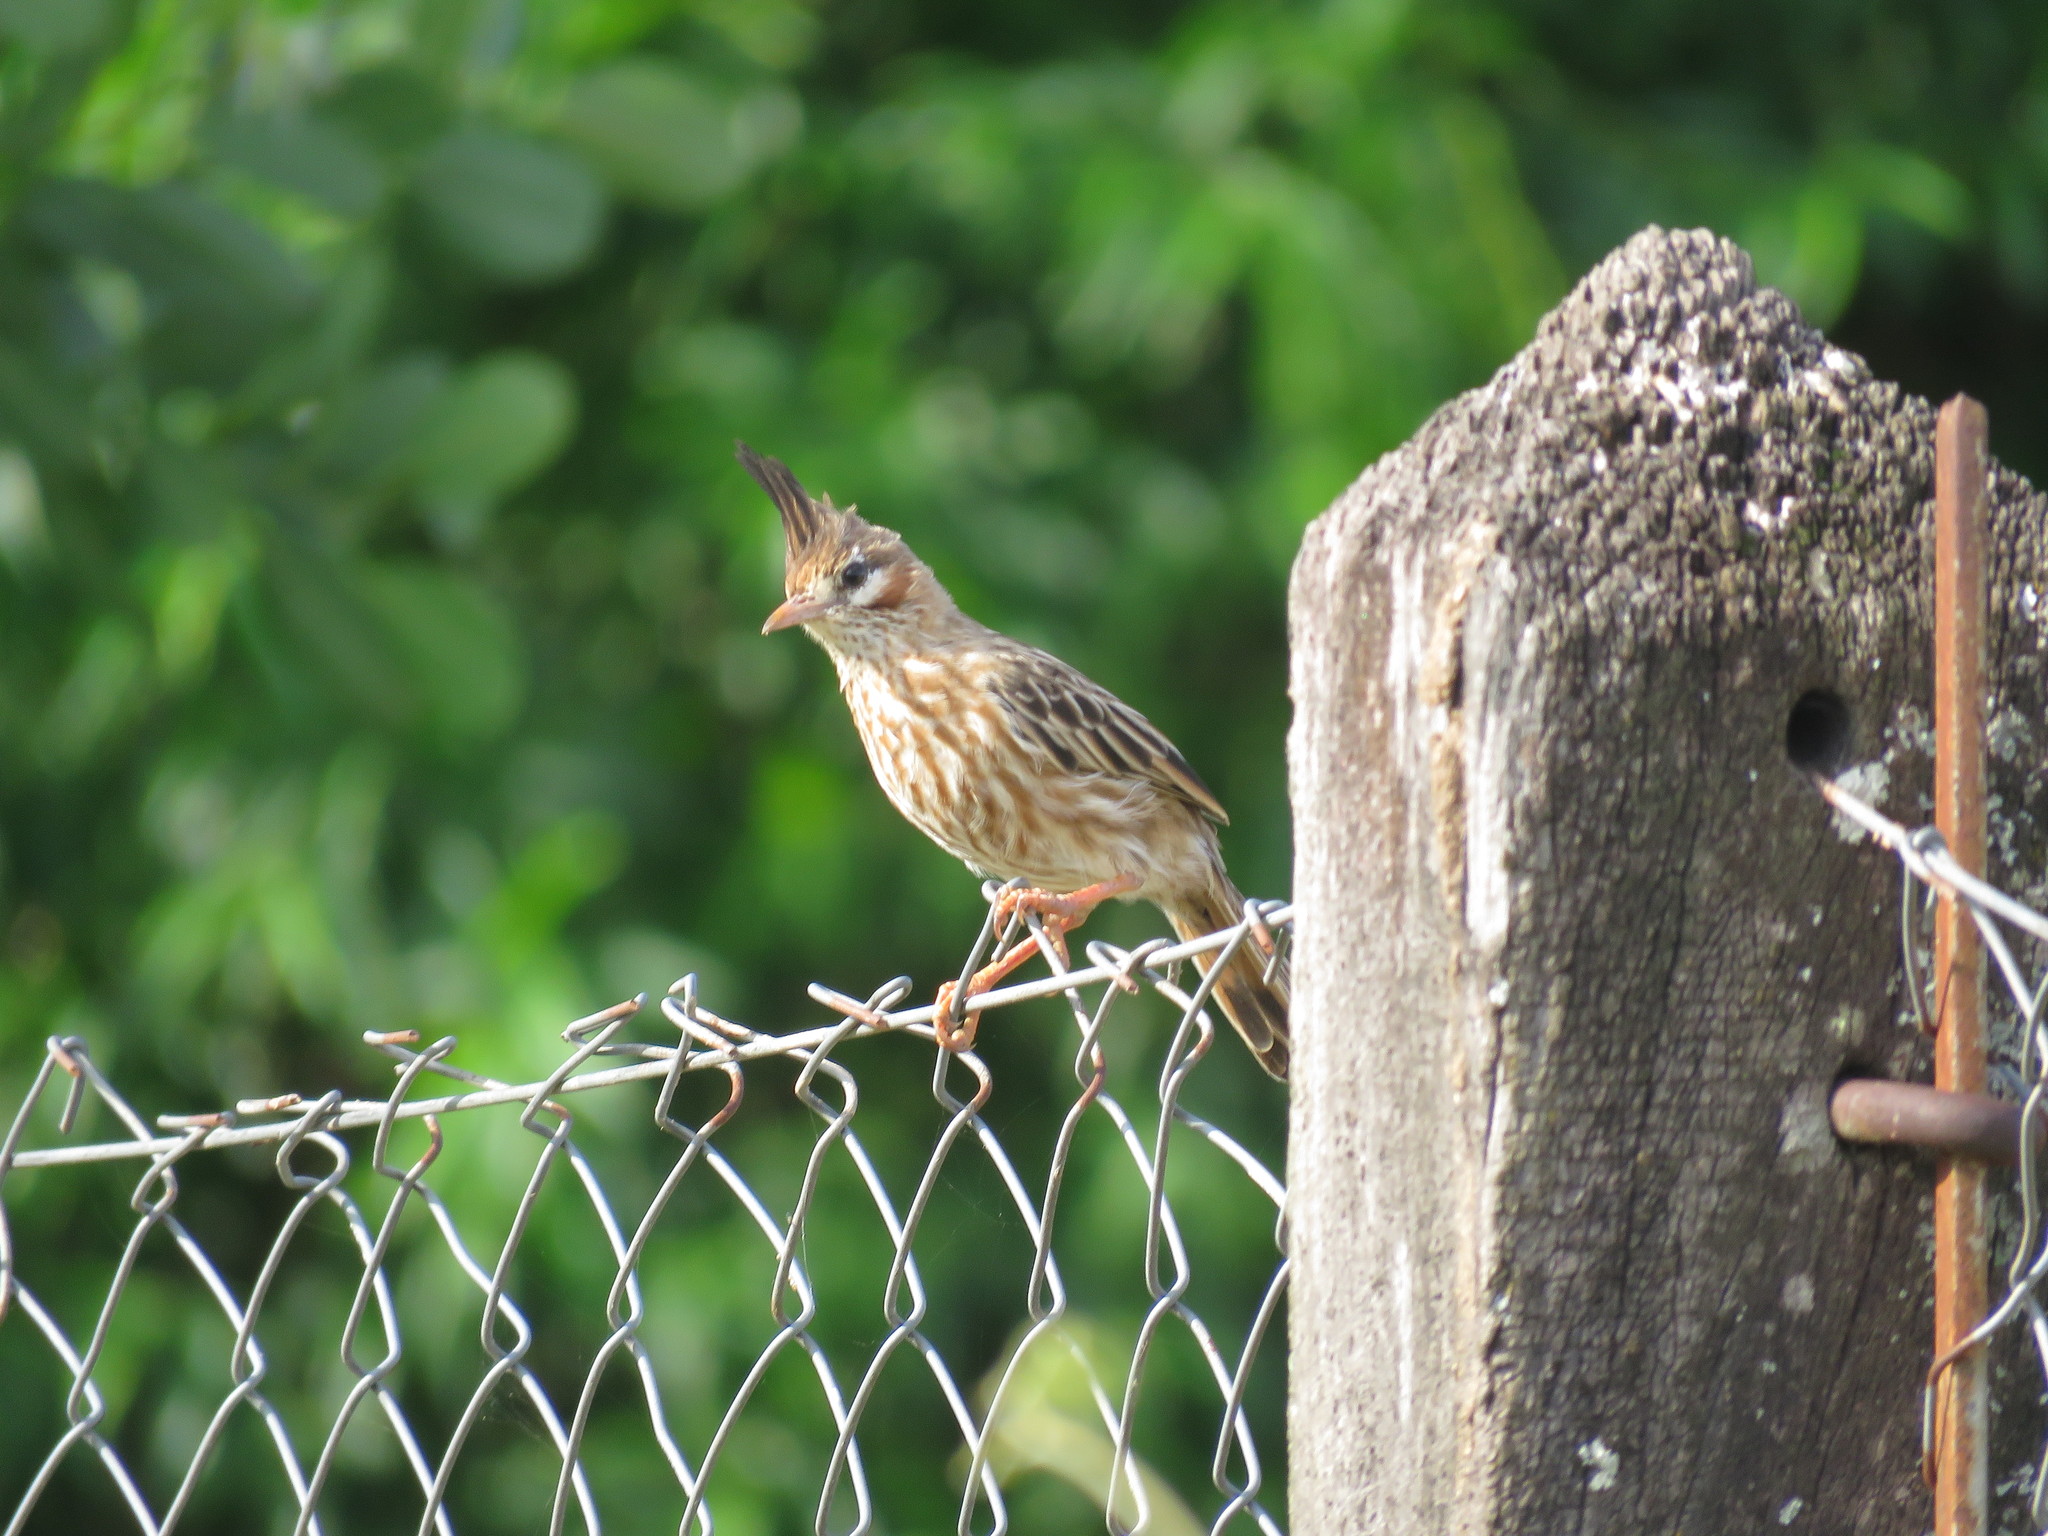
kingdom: Animalia
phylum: Chordata
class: Aves
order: Passeriformes
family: Furnariidae
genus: Coryphistera
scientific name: Coryphistera alaudina
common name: Lark-like brushrunner
